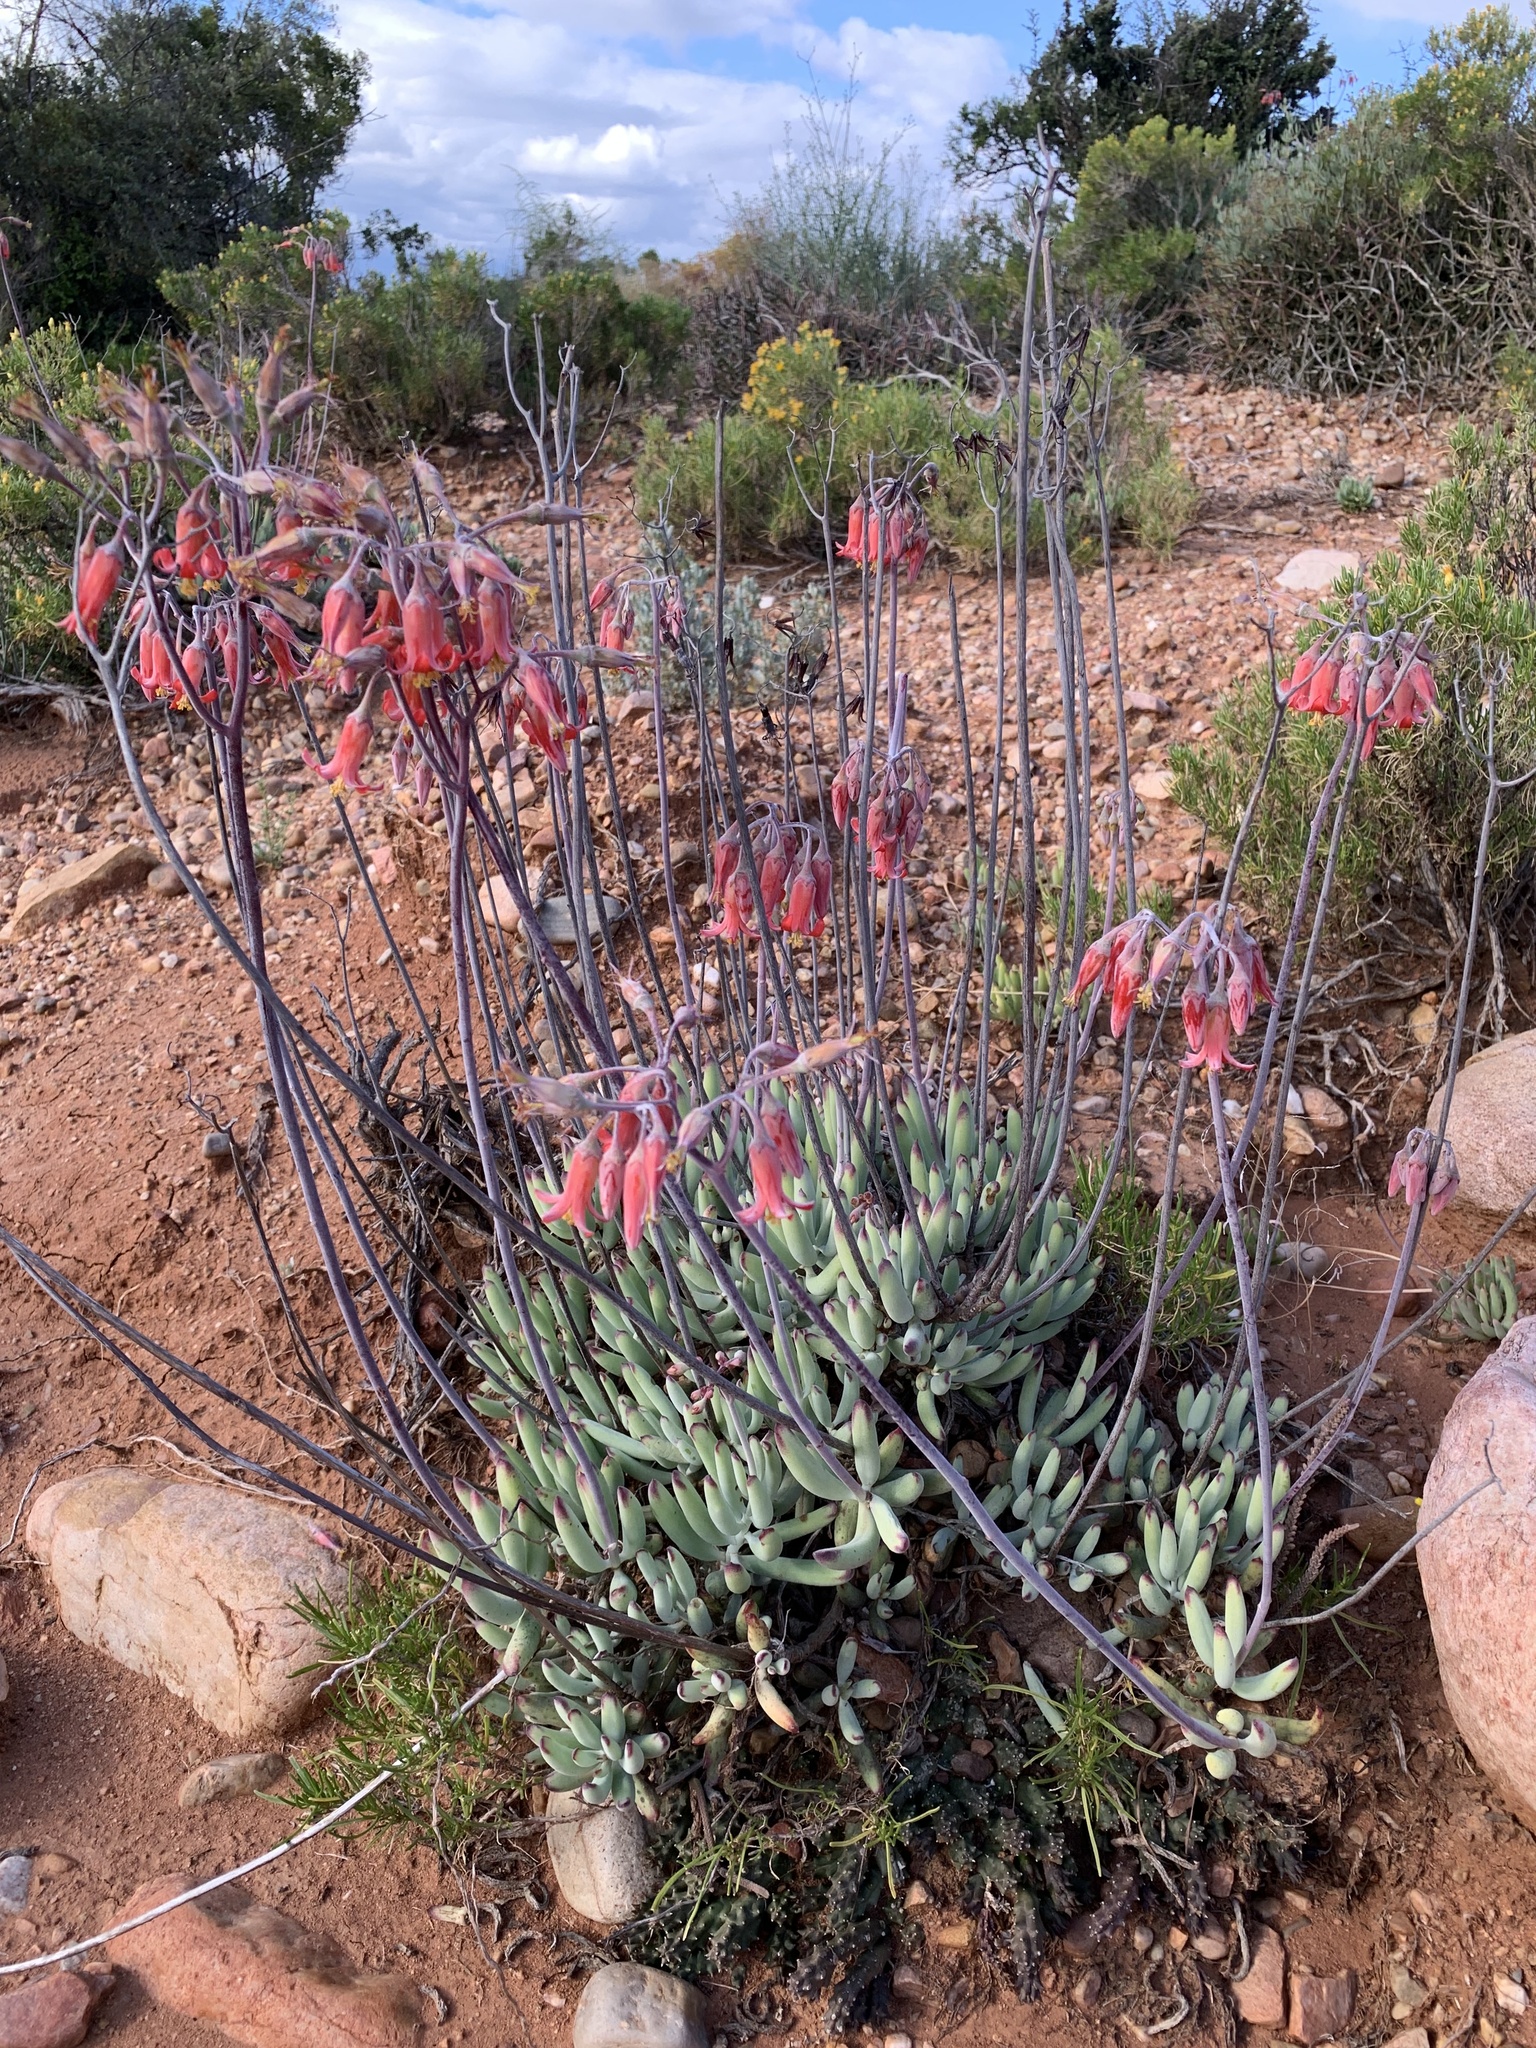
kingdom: Plantae
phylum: Tracheophyta
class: Magnoliopsida
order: Saxifragales
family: Crassulaceae
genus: Cotyledon
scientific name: Cotyledon orbiculata
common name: Pig's ear
